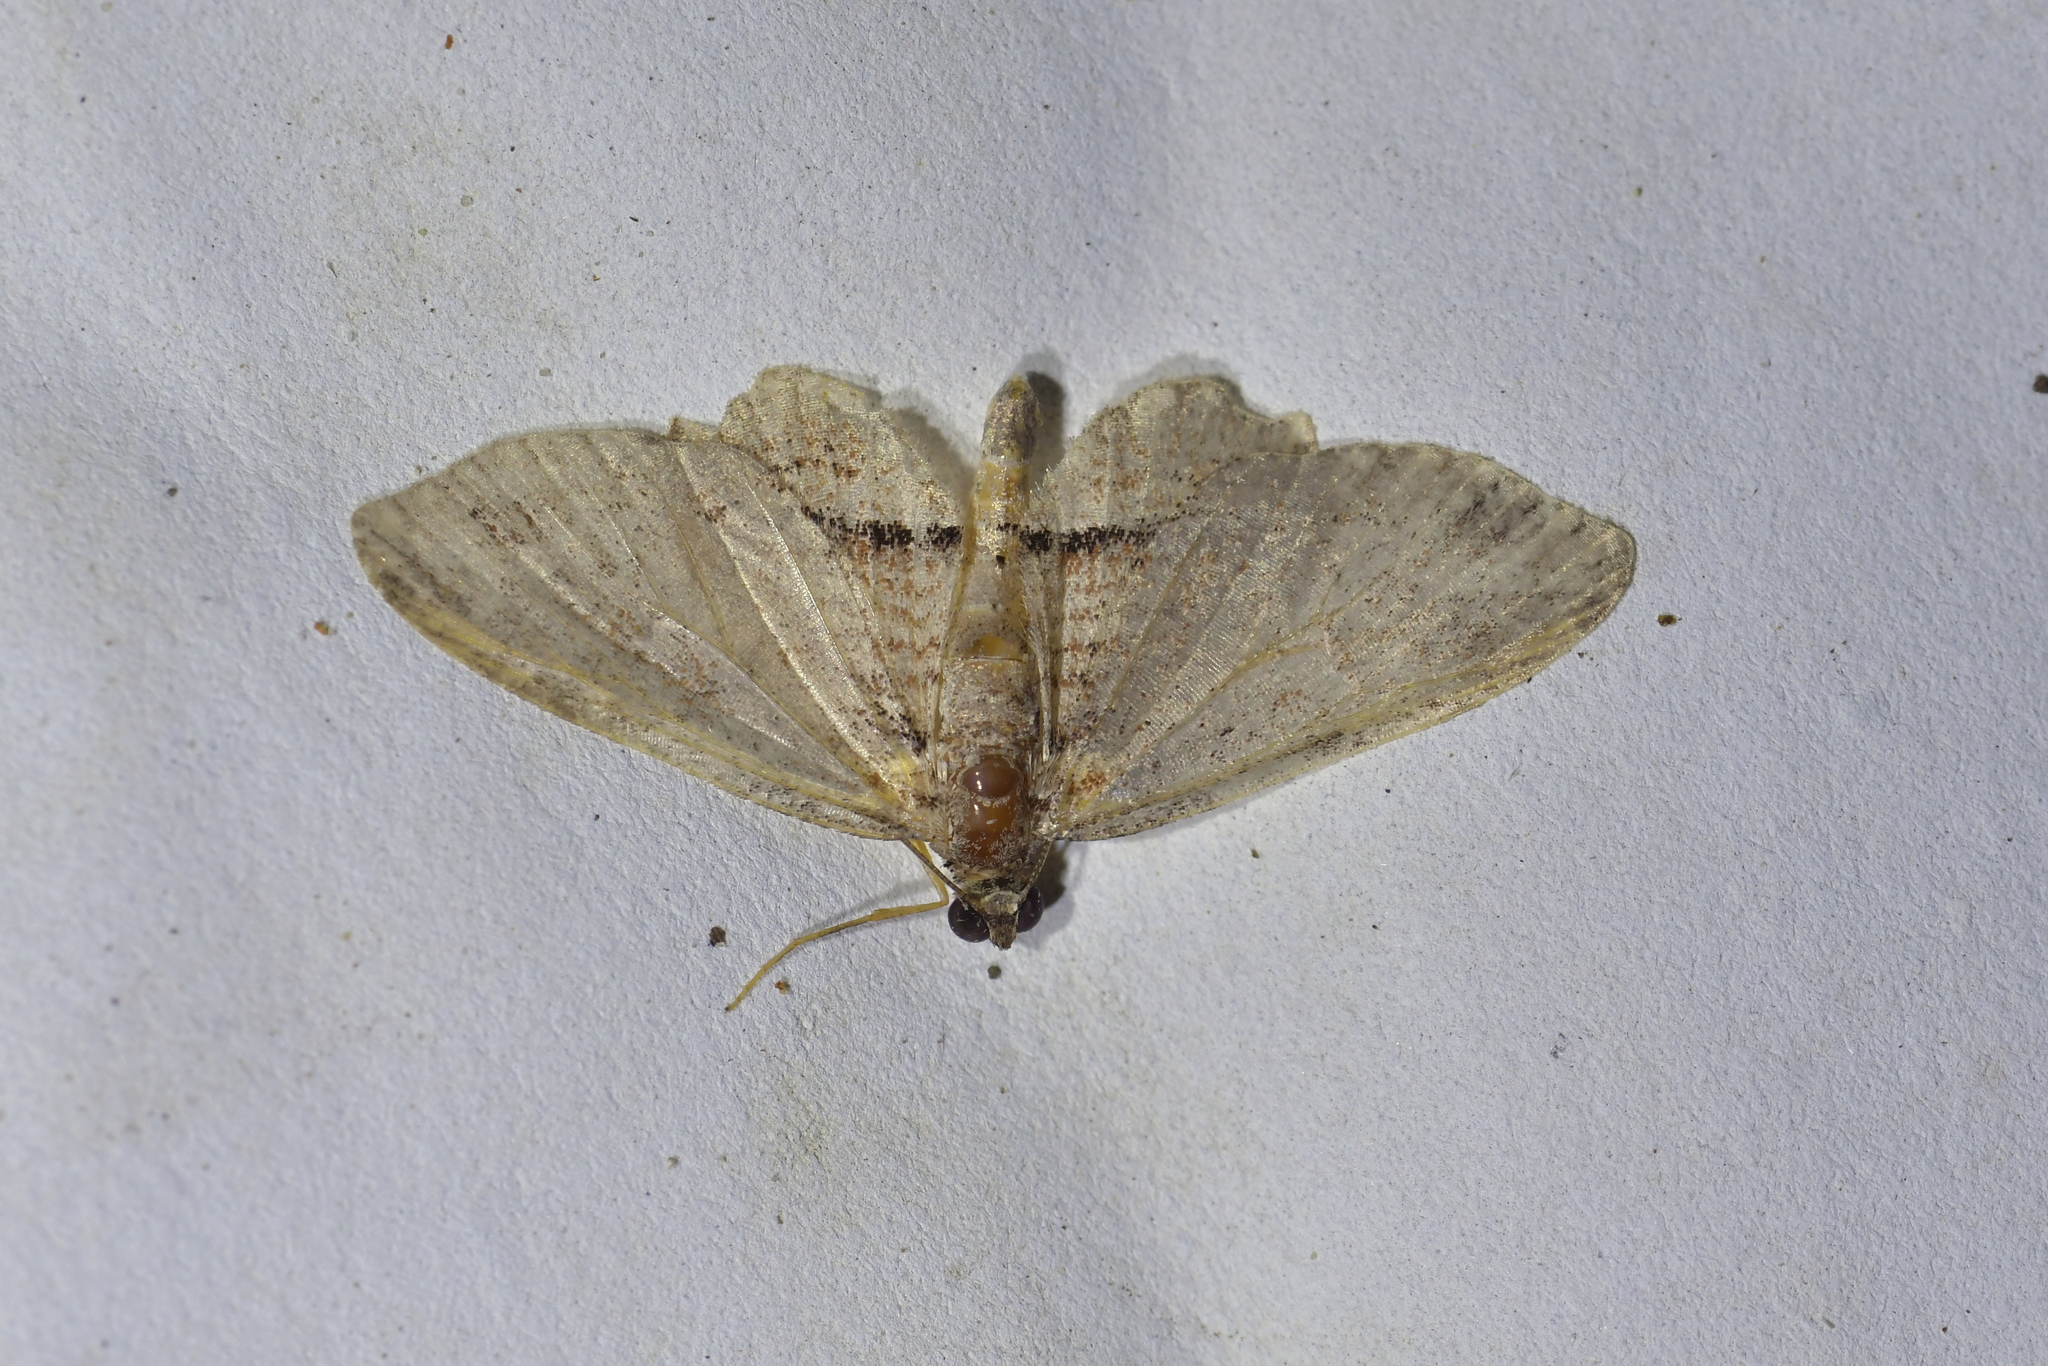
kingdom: Animalia
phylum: Arthropoda
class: Insecta
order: Lepidoptera
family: Geometridae
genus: Chloroclystis
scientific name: Chloroclystis filata
